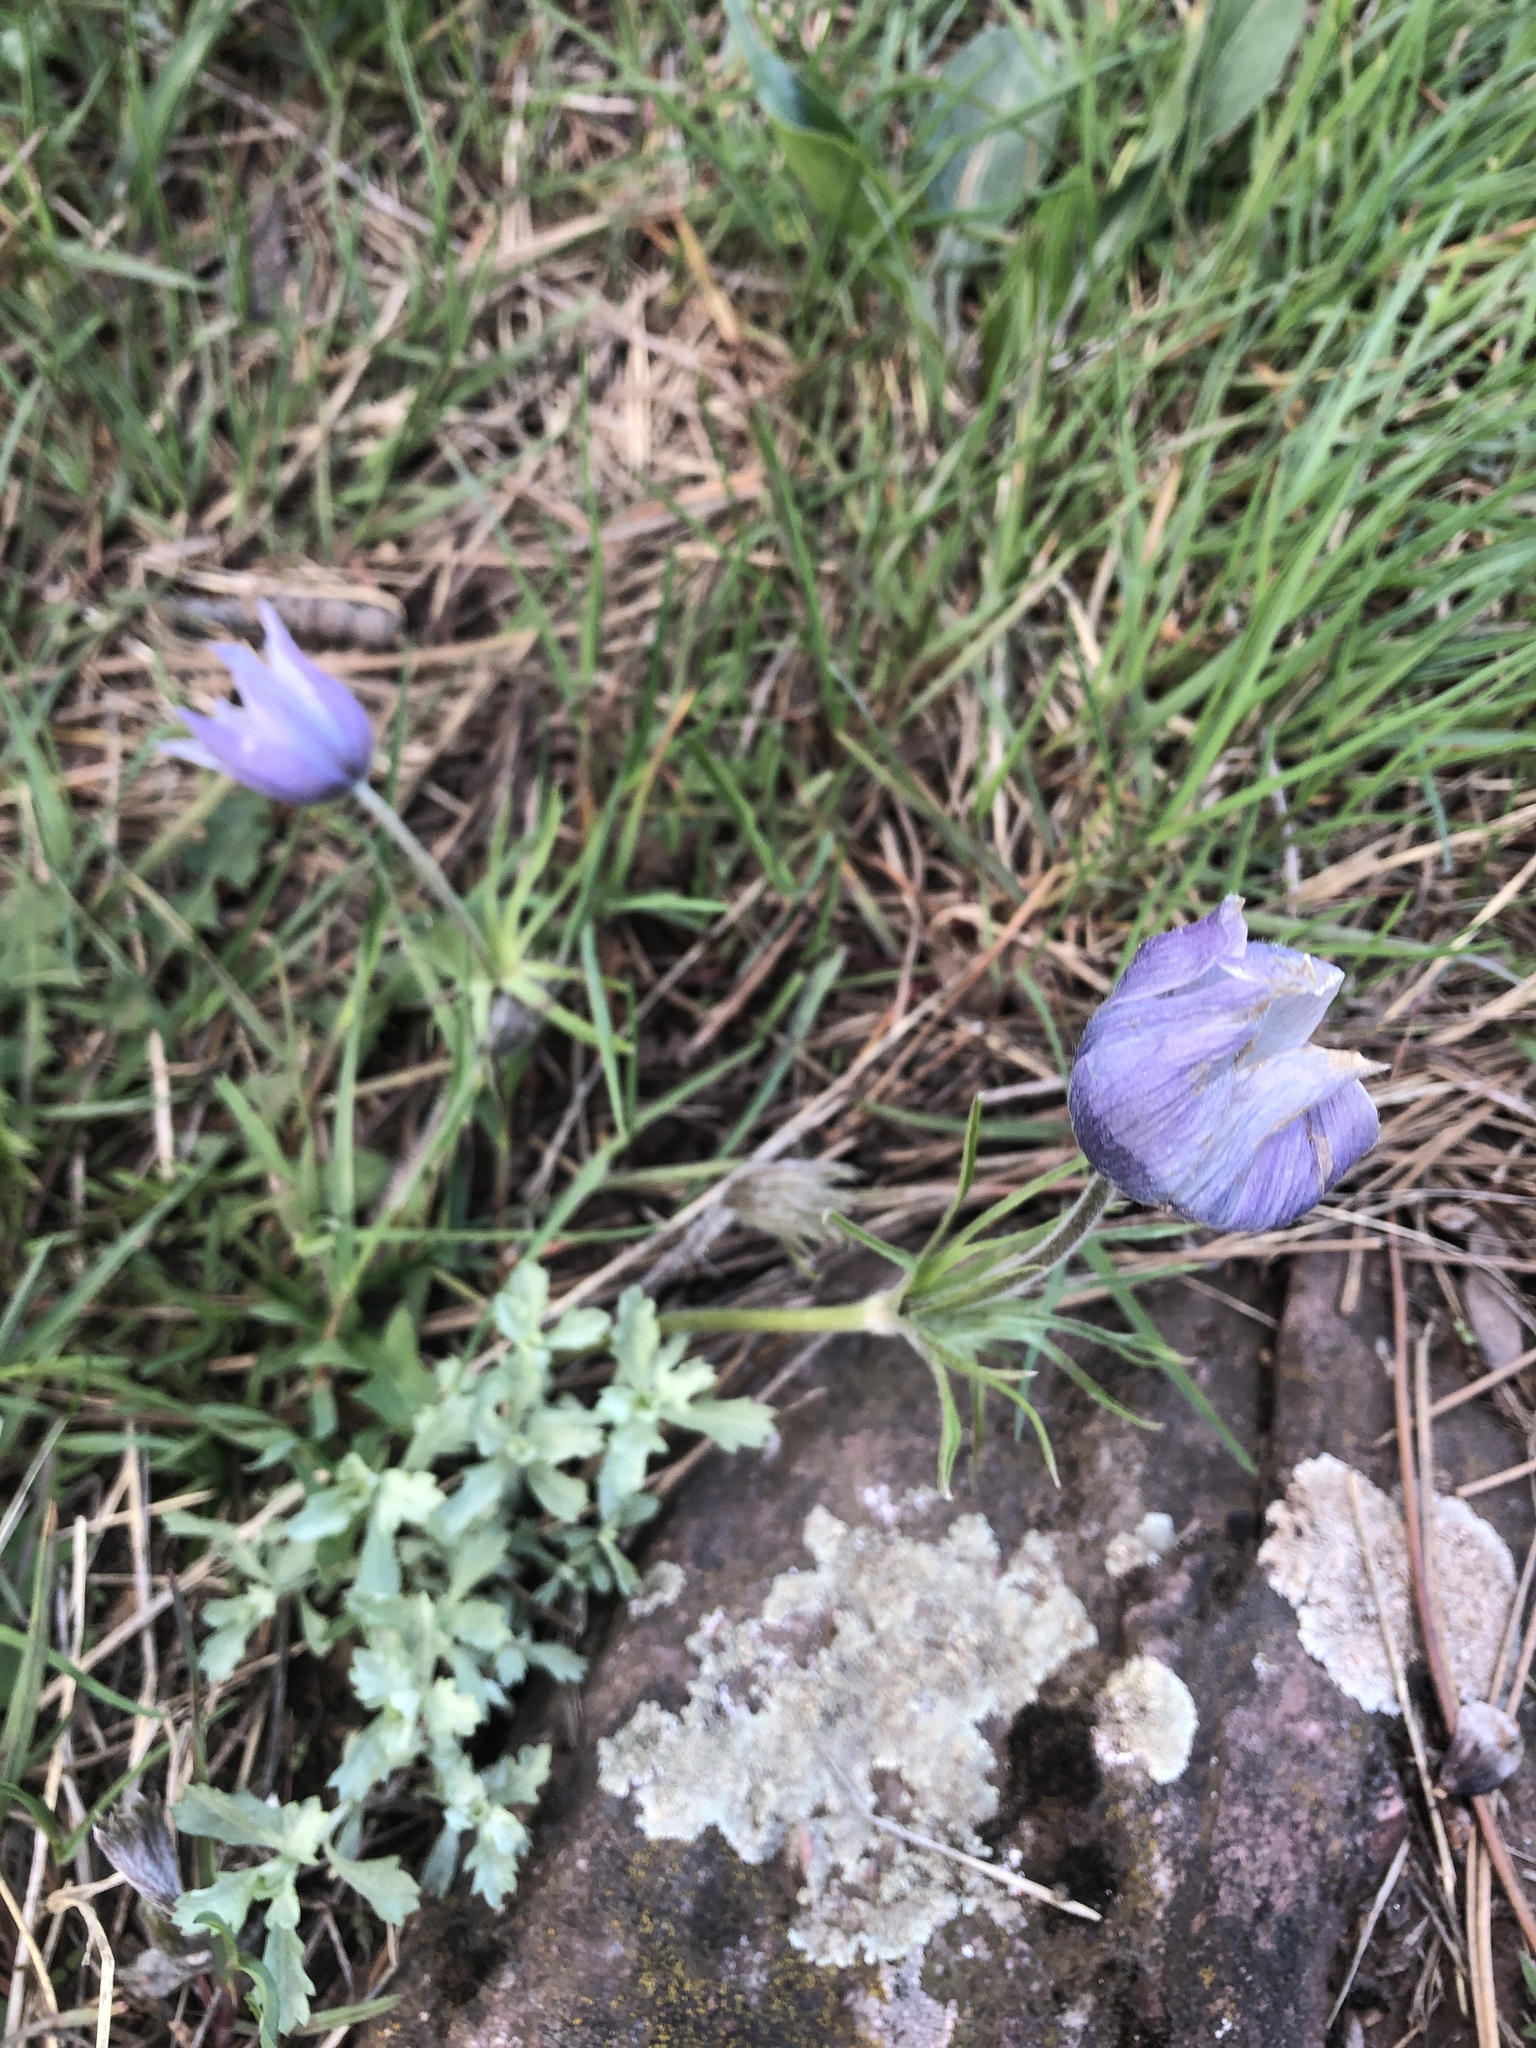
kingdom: Plantae
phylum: Tracheophyta
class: Magnoliopsida
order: Ranunculales
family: Ranunculaceae
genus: Pulsatilla
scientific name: Pulsatilla nuttalliana
